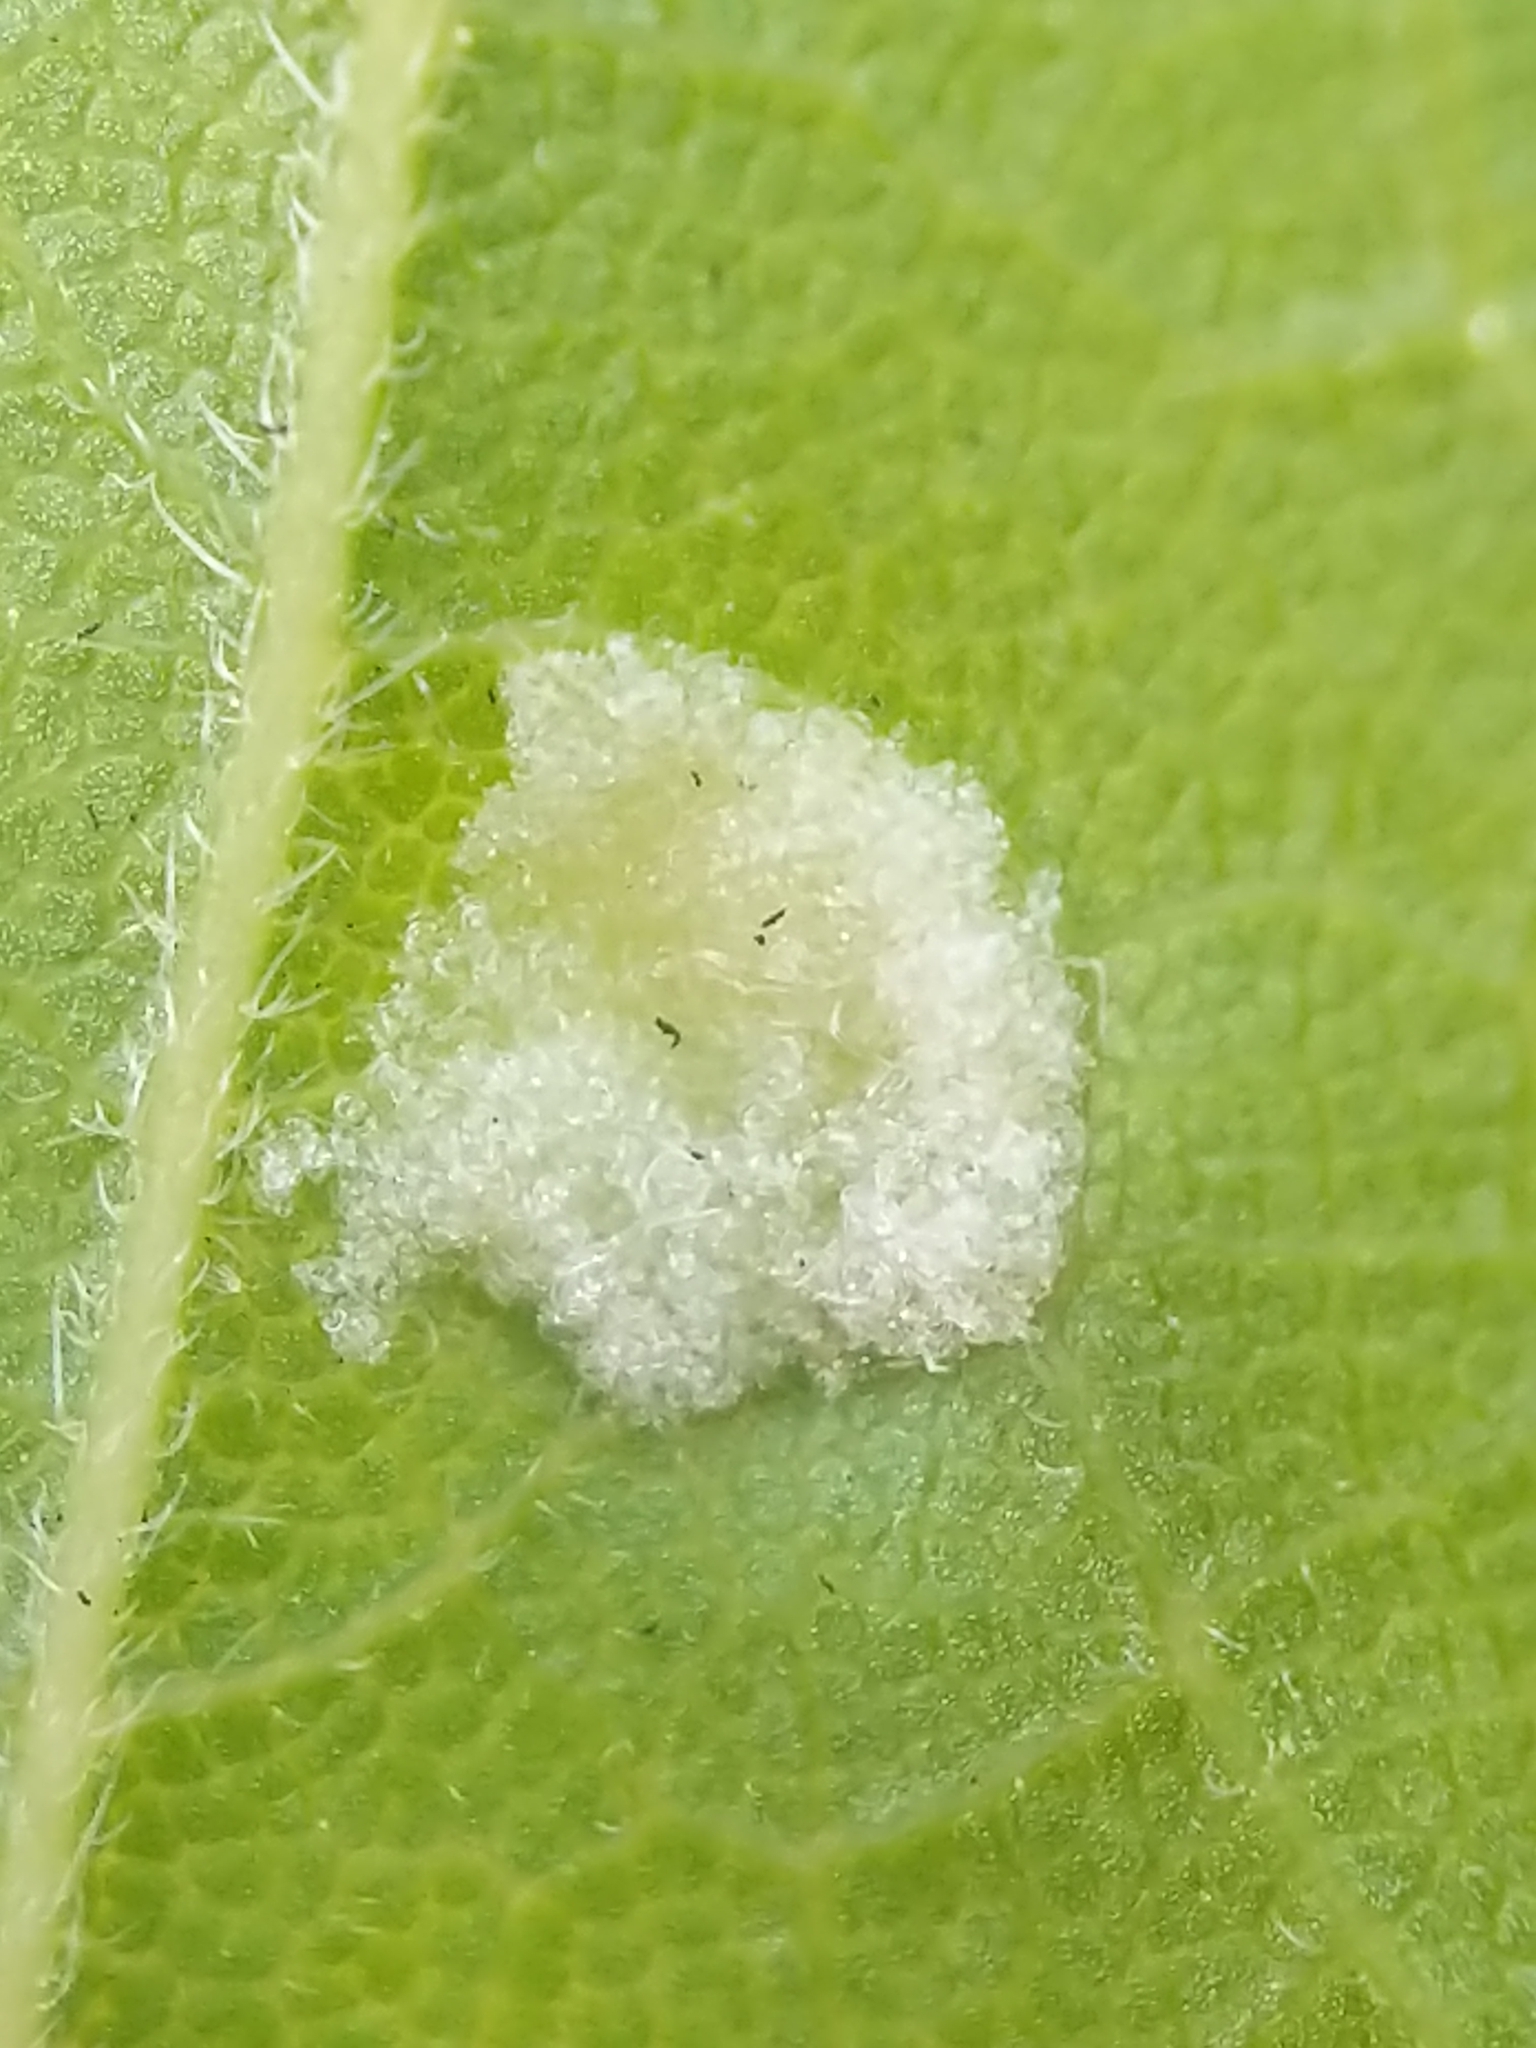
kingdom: Animalia
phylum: Arthropoda
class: Arachnida
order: Trombidiformes
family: Eriophyidae
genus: Aceria
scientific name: Aceria
